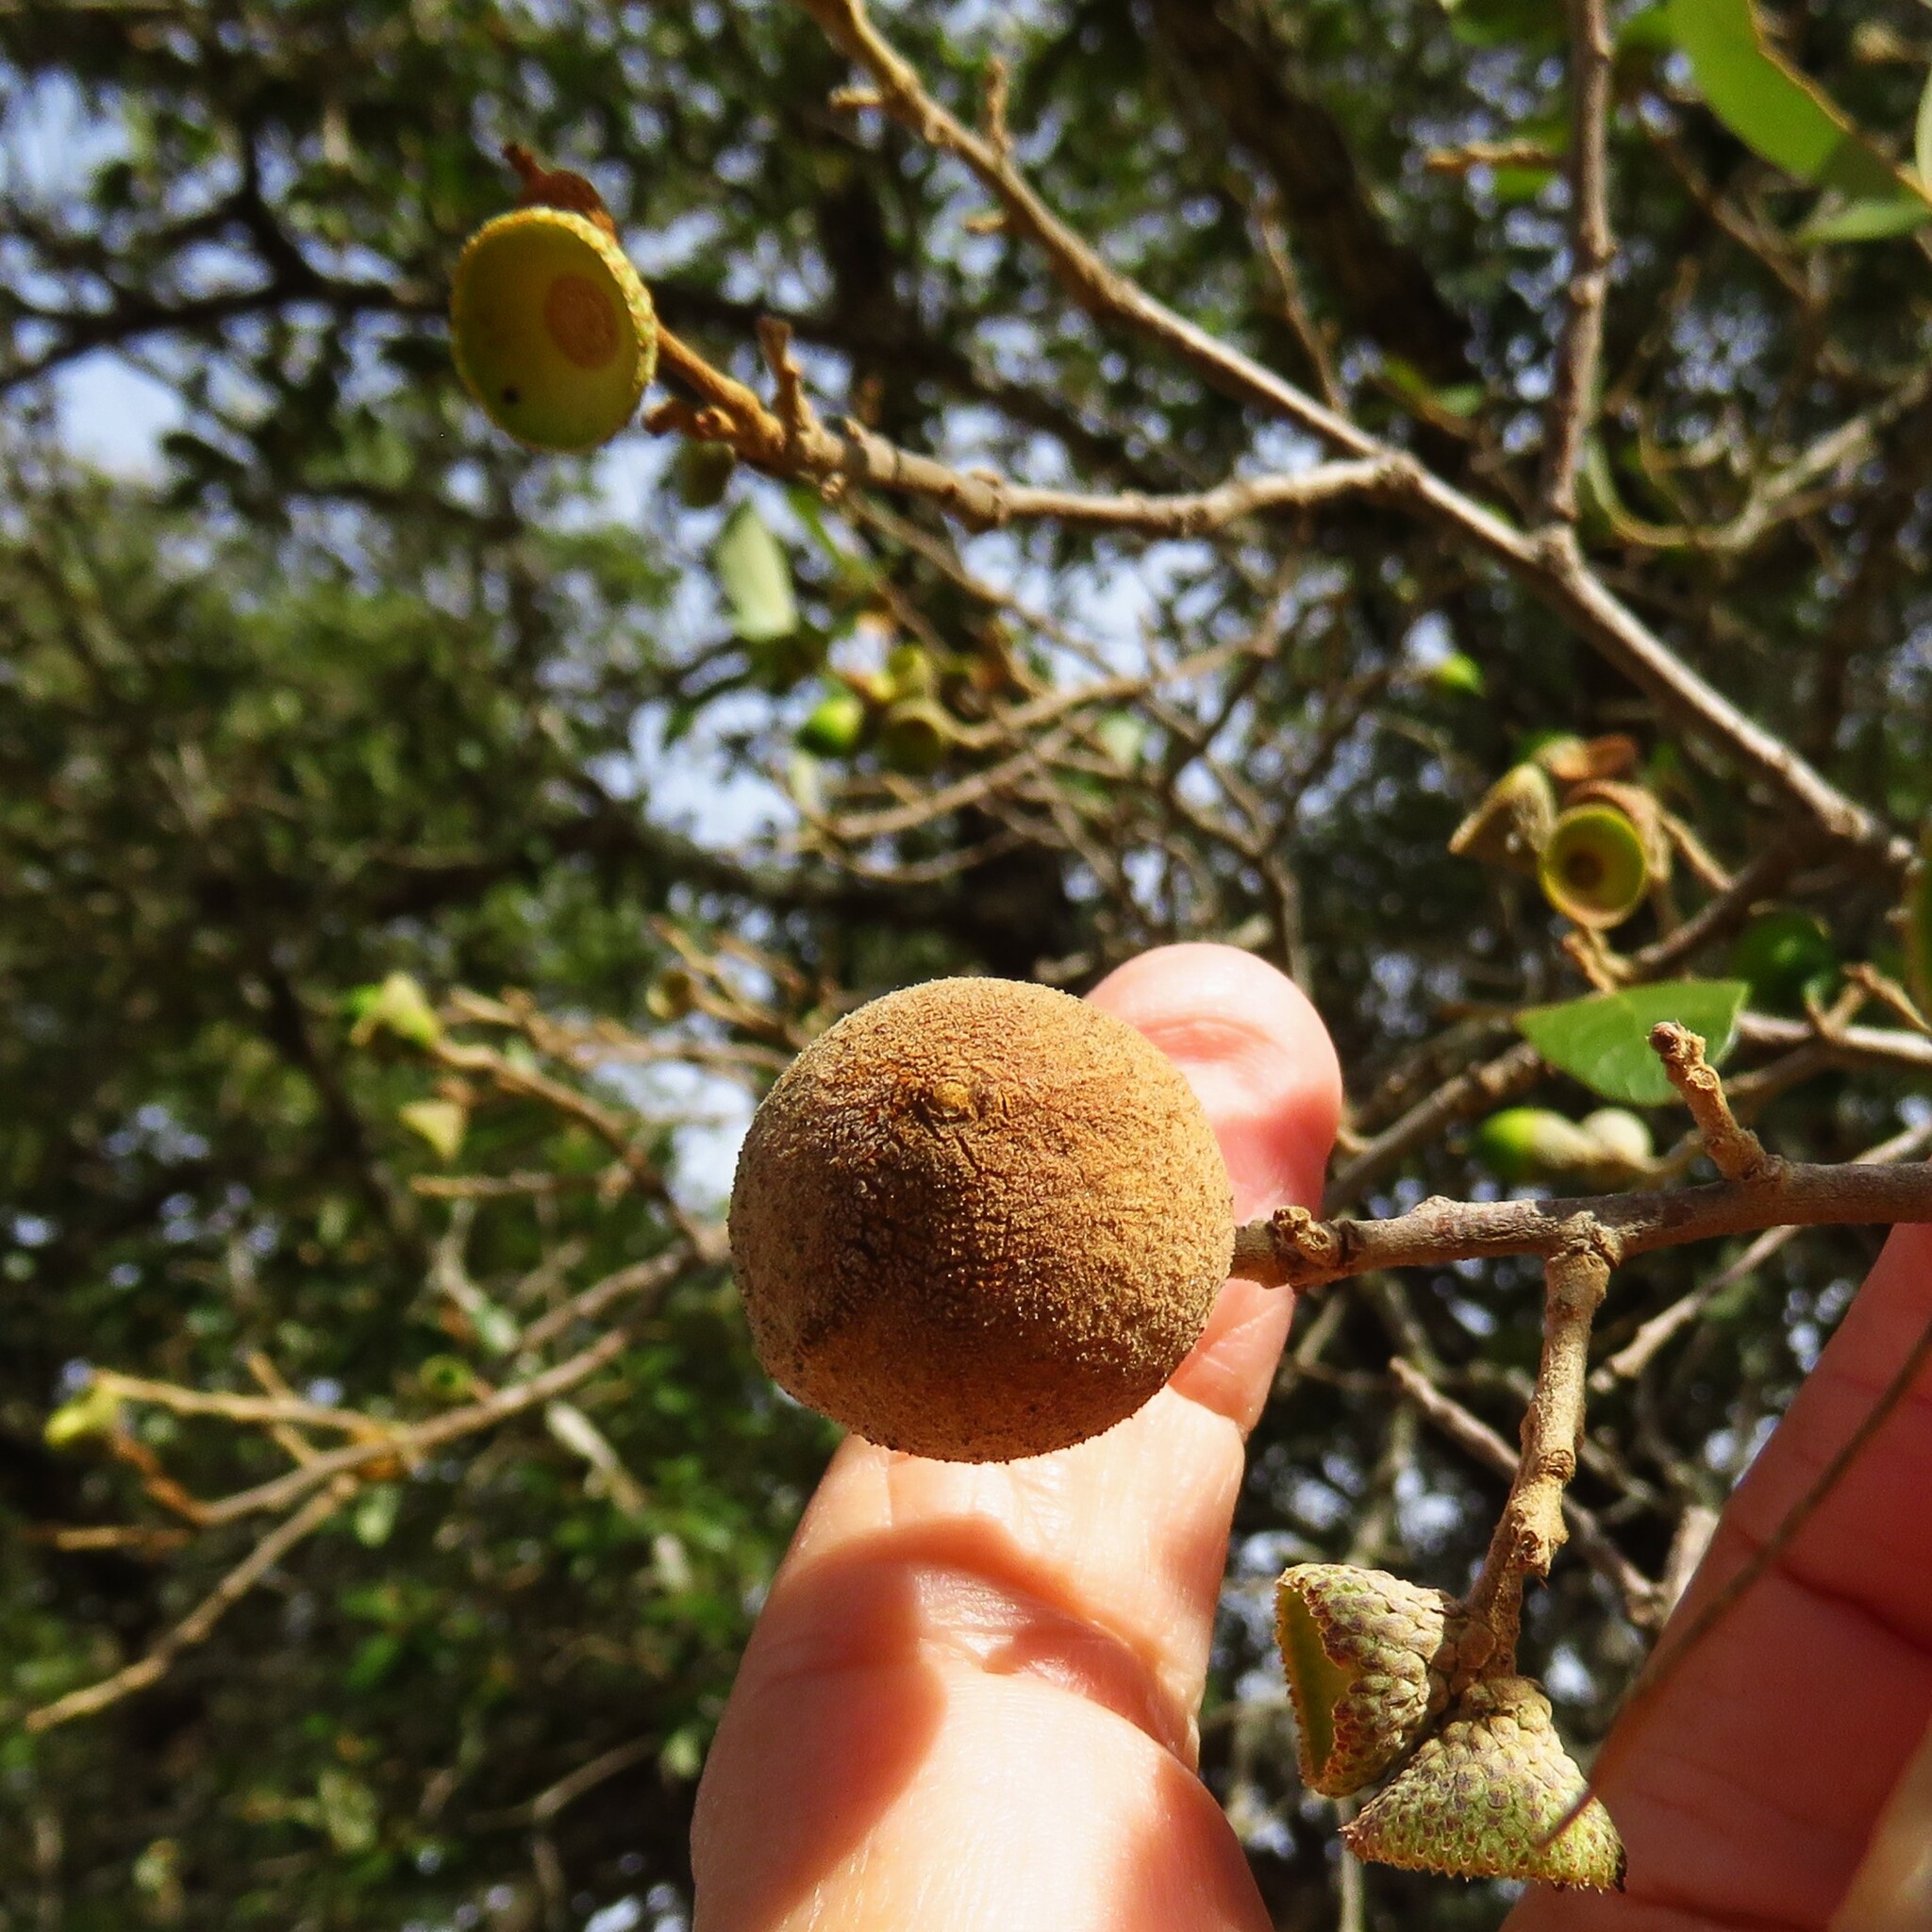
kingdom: Animalia
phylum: Arthropoda
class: Insecta
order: Hymenoptera
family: Cynipidae
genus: Disholcaspis
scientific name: Disholcaspis
